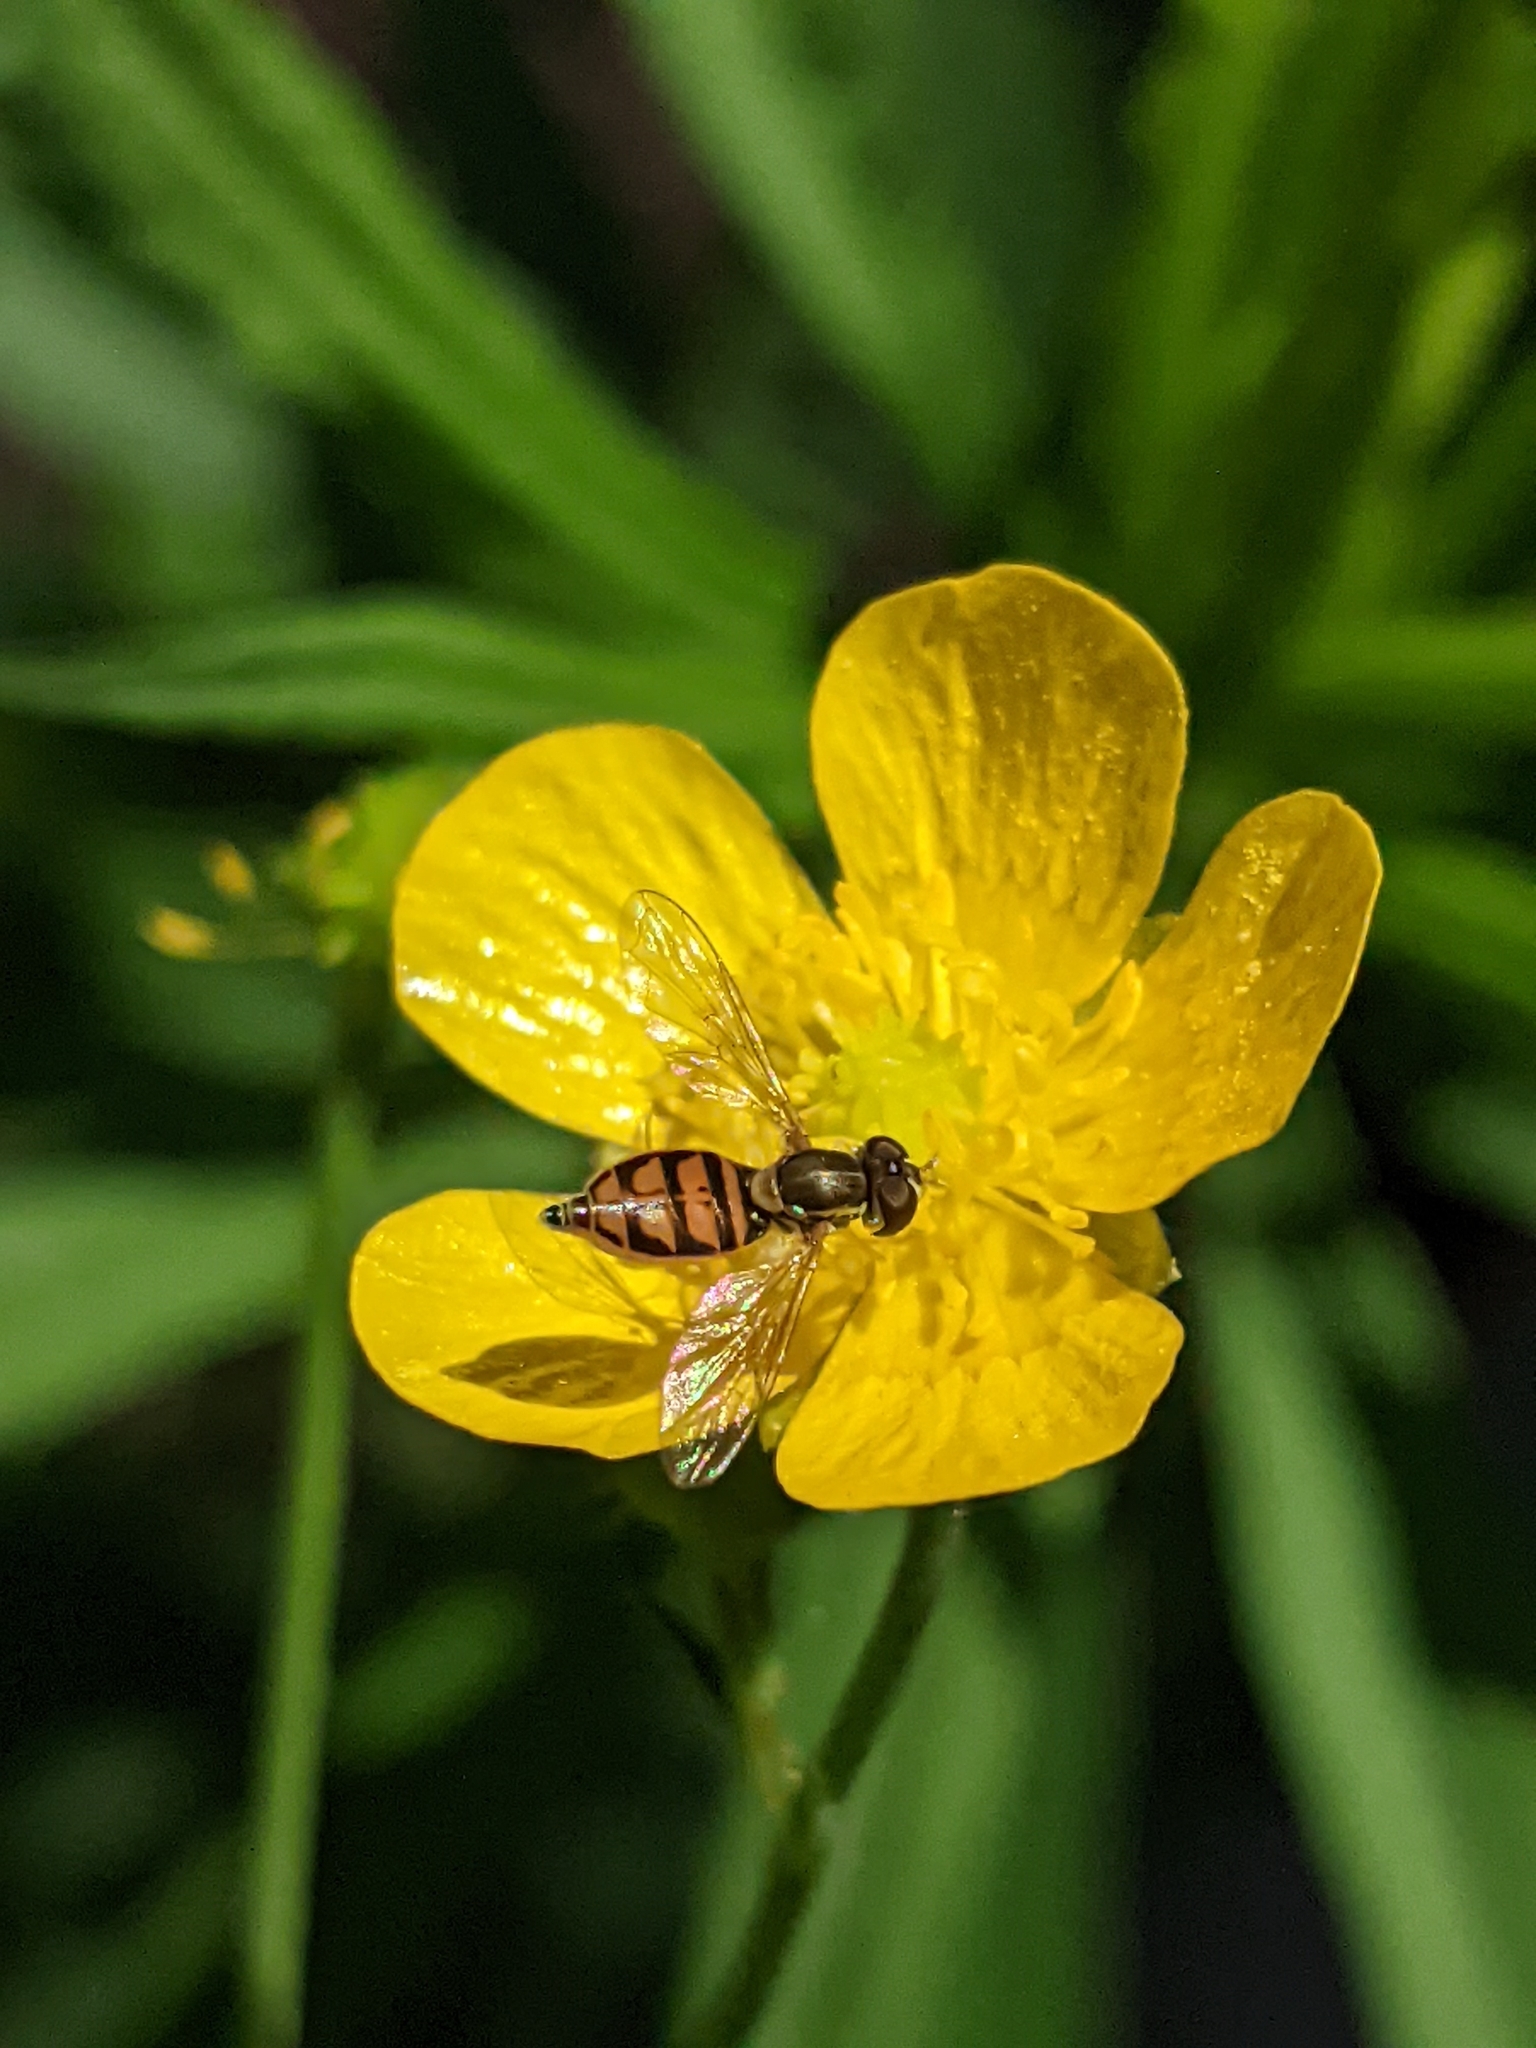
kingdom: Animalia
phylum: Arthropoda
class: Insecta
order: Diptera
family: Syrphidae
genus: Toxomerus
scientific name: Toxomerus marginatus
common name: Syrphid fly
